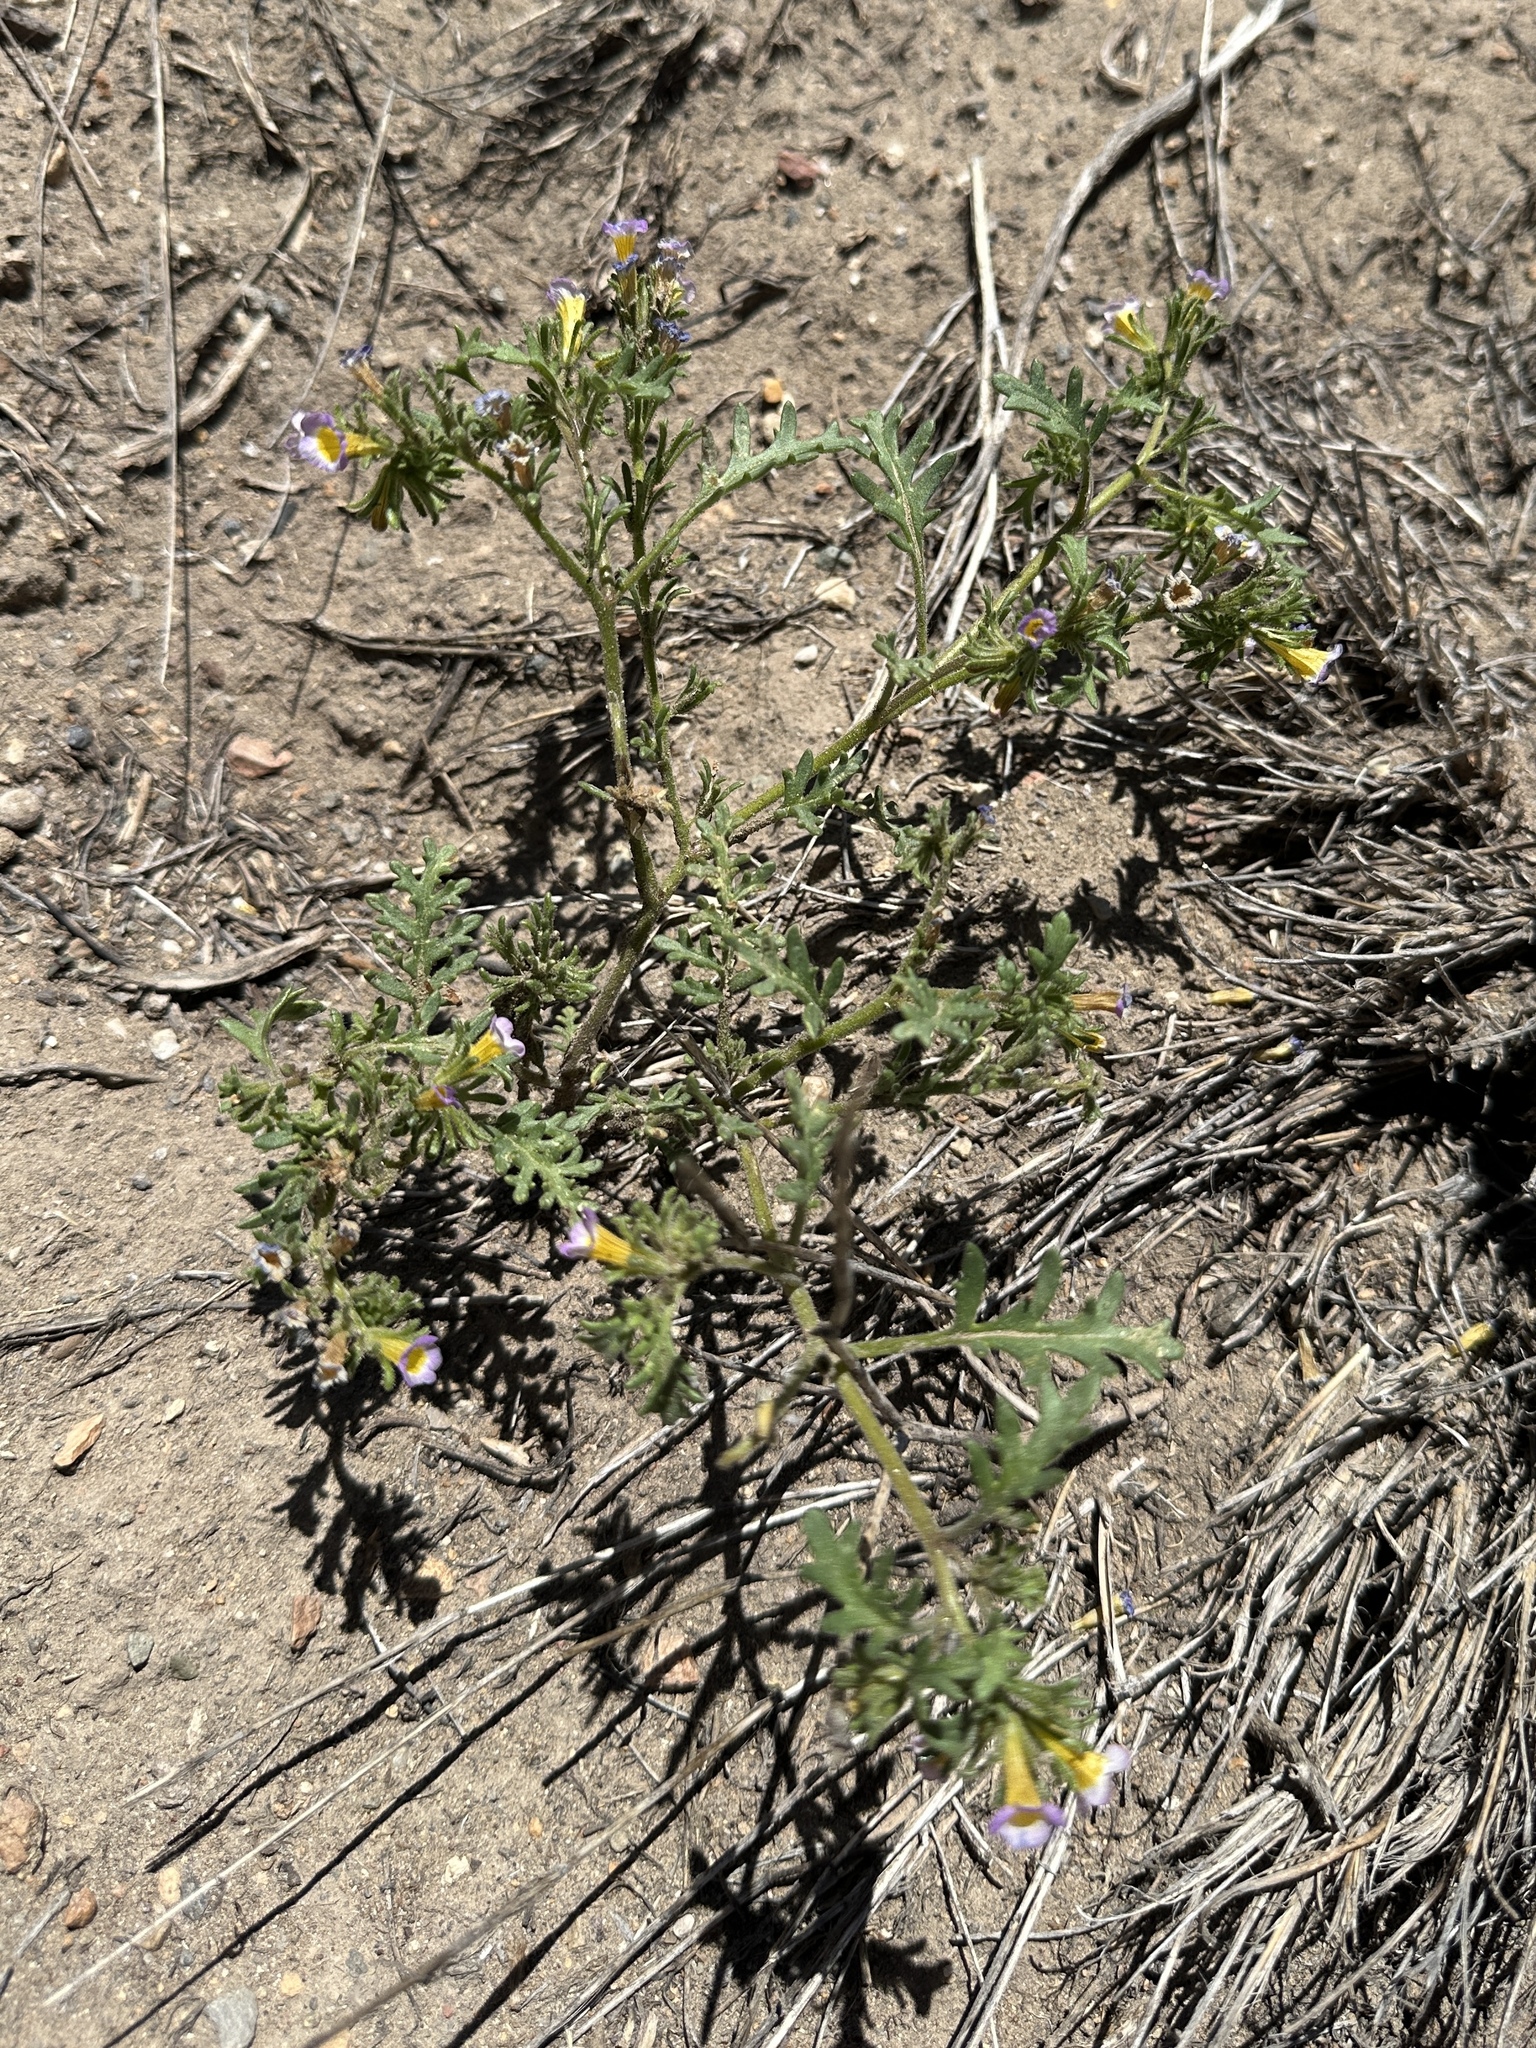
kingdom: Plantae
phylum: Tracheophyta
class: Magnoliopsida
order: Boraginales
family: Hydrophyllaceae
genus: Phacelia
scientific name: Phacelia bicolor
